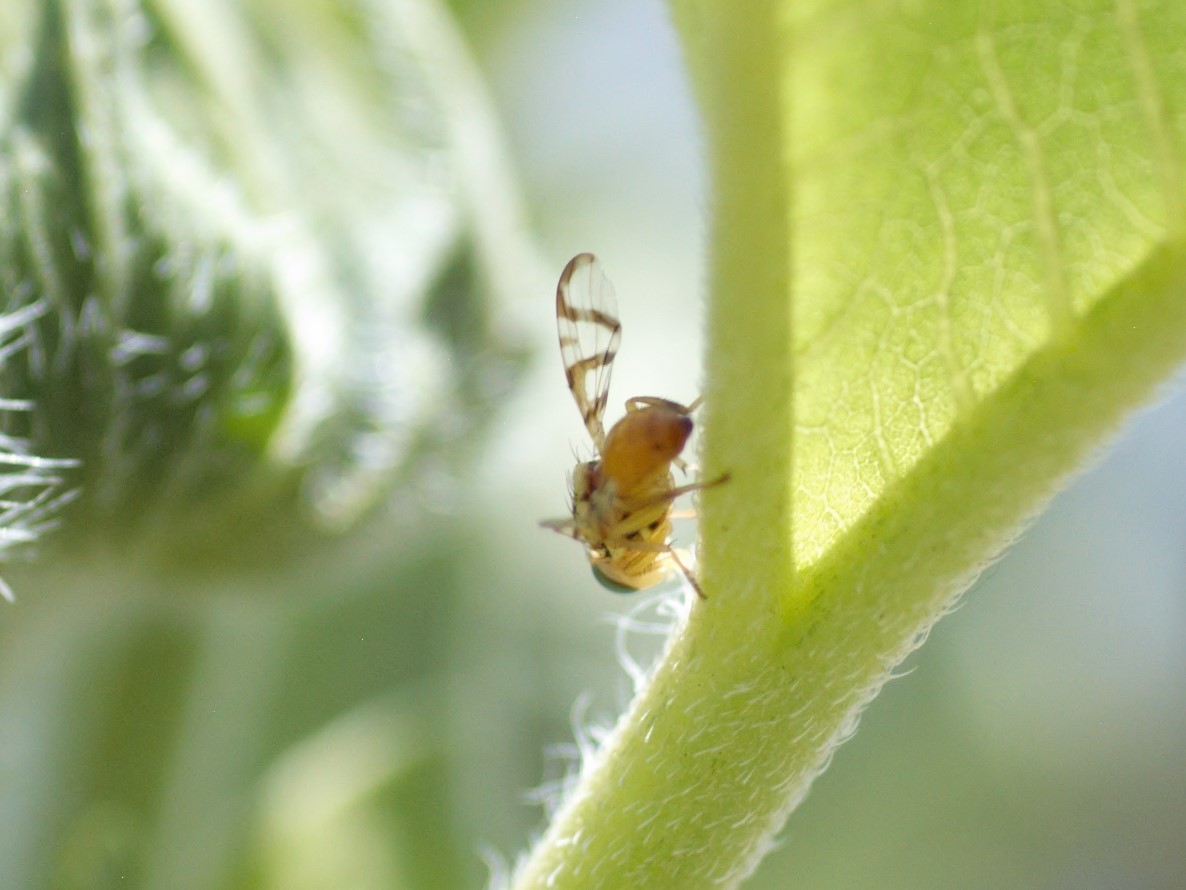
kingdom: Animalia
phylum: Arthropoda
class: Insecta
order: Diptera
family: Tephritidae
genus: Zonosemata
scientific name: Zonosemata vittigera
